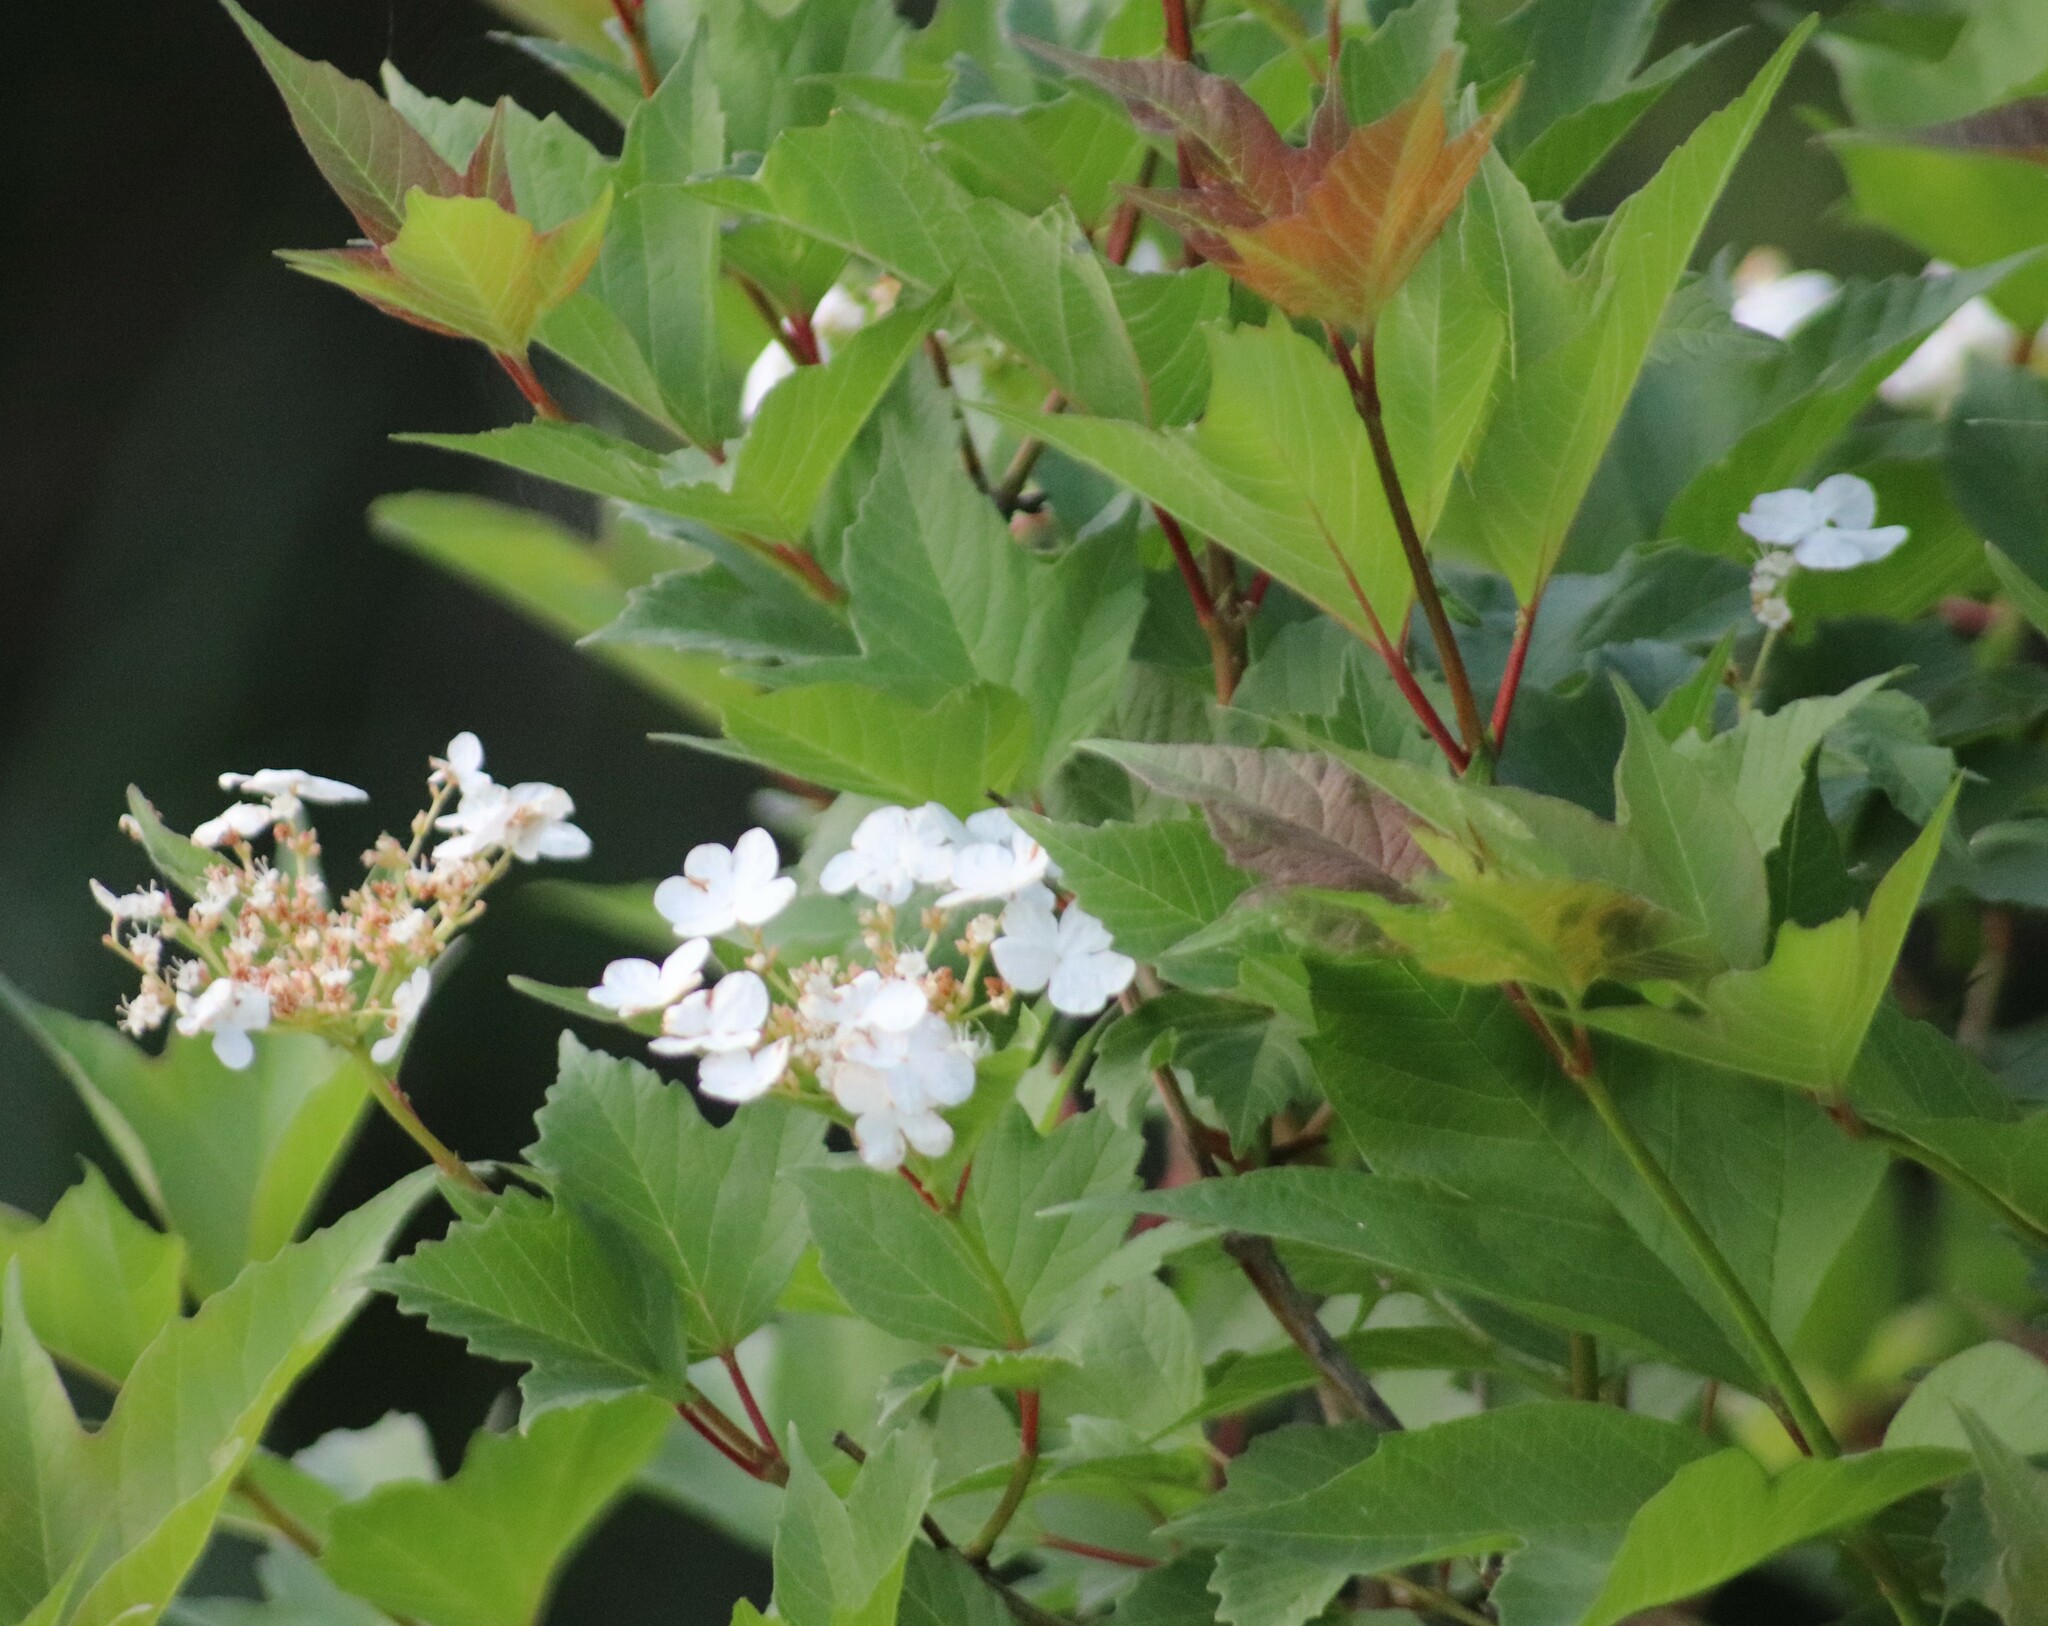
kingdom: Plantae
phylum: Tracheophyta
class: Magnoliopsida
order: Dipsacales
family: Viburnaceae
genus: Viburnum
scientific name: Viburnum opulus
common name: Guelder-rose
